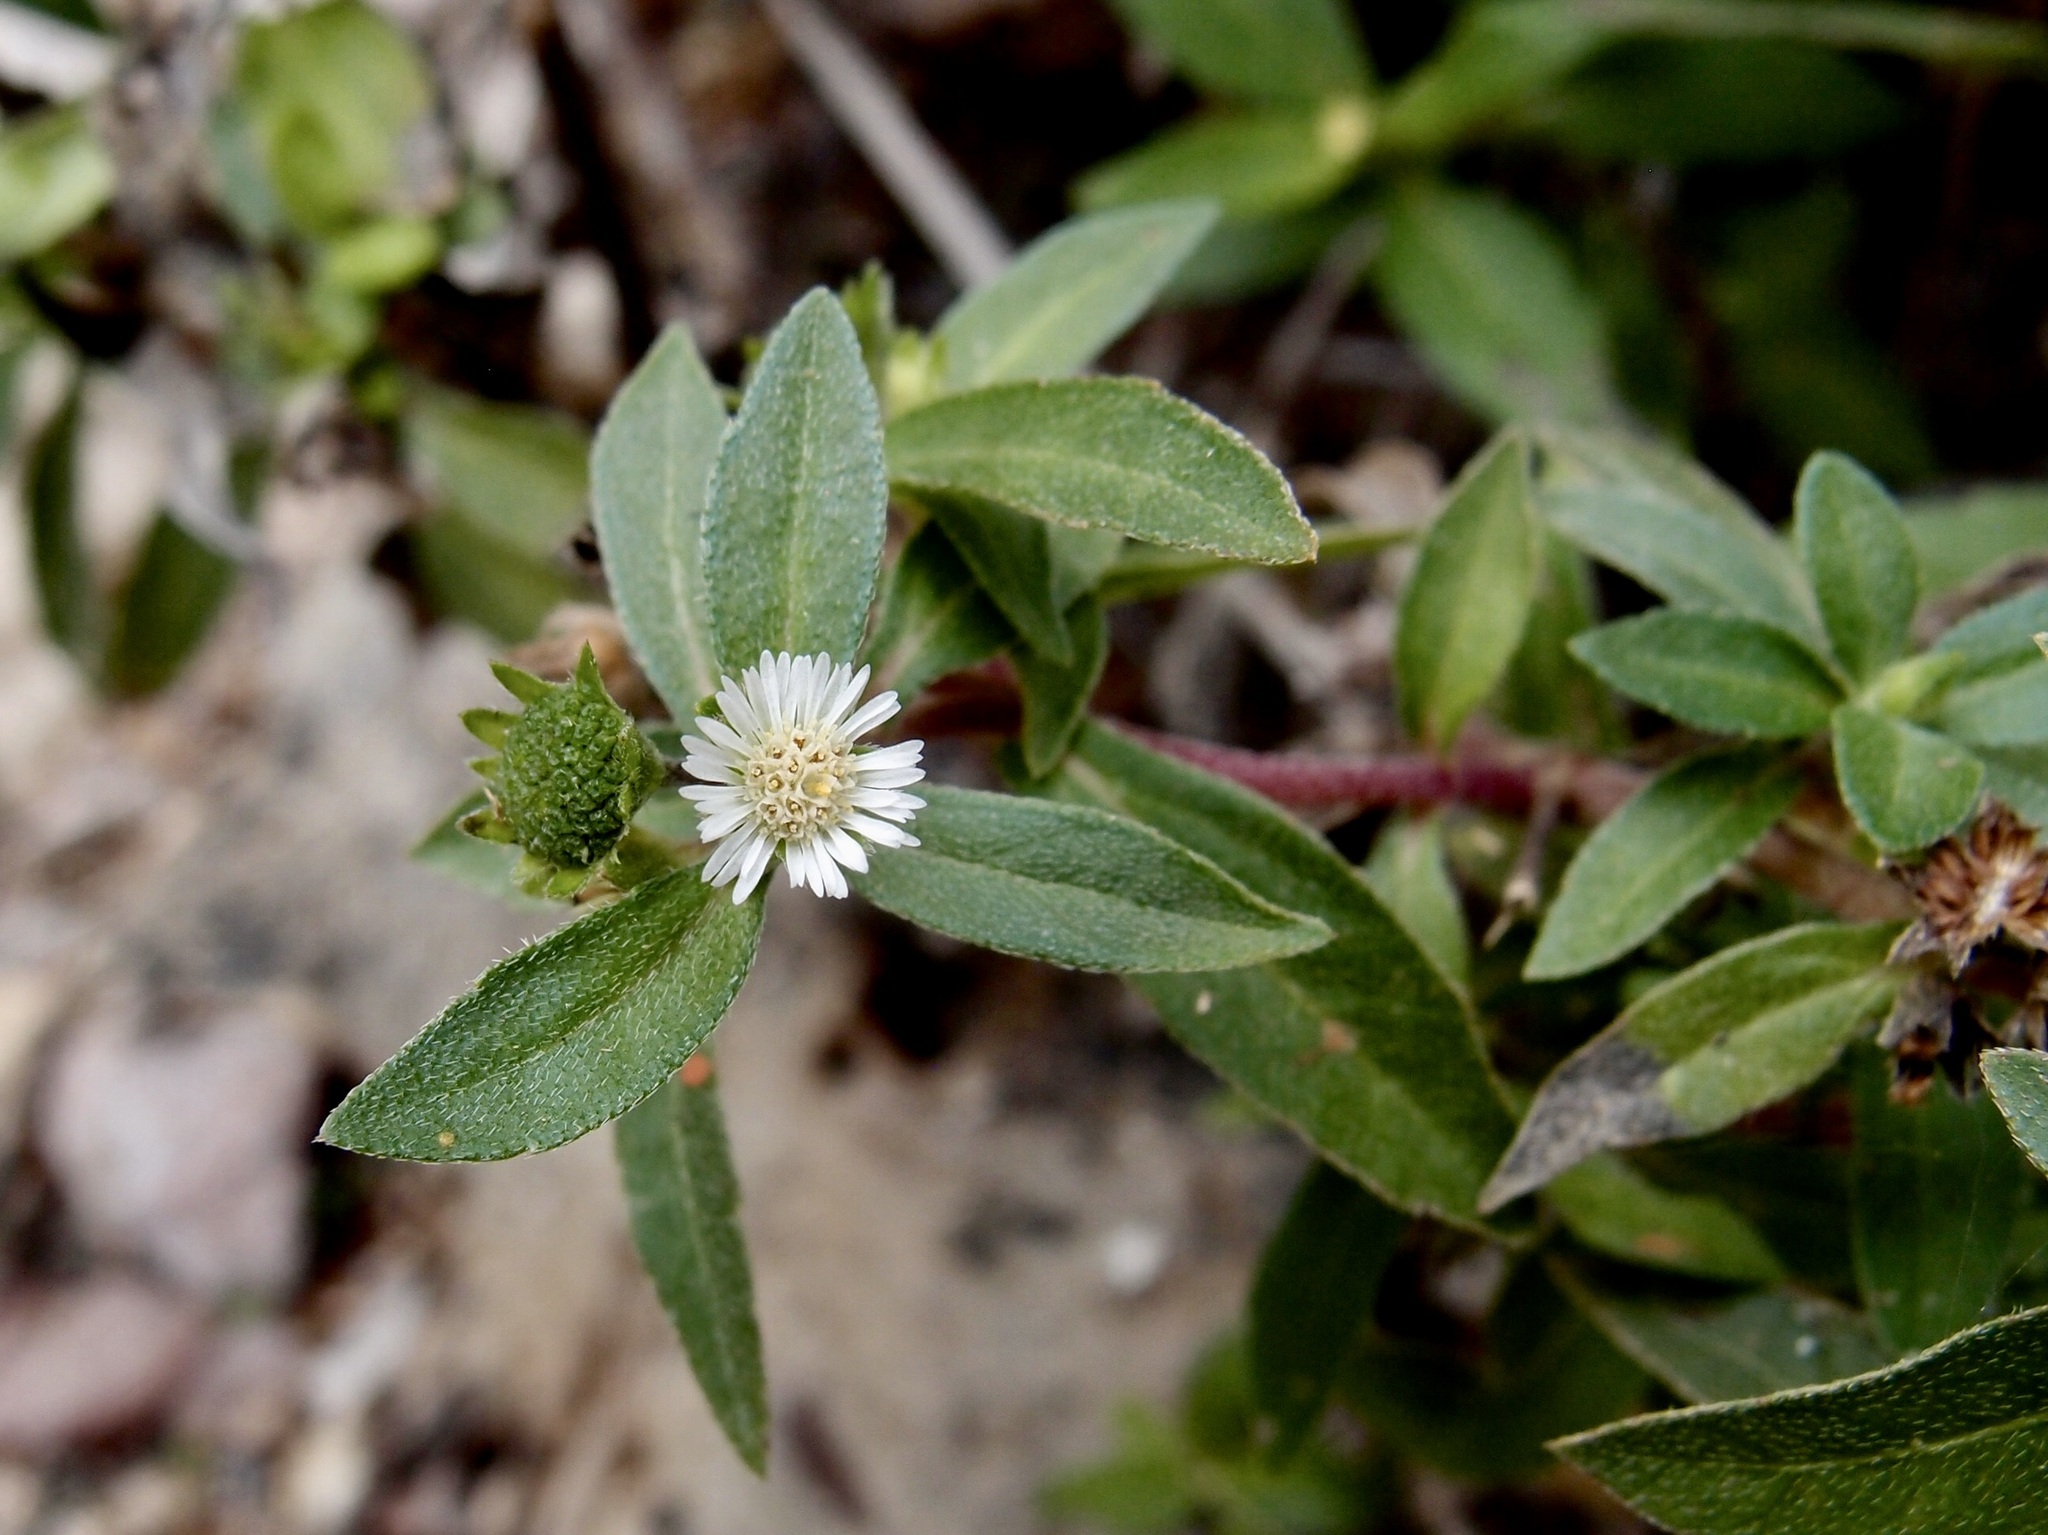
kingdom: Plantae
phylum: Tracheophyta
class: Magnoliopsida
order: Asterales
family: Asteraceae
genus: Eclipta
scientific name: Eclipta prostrata
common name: False daisy
